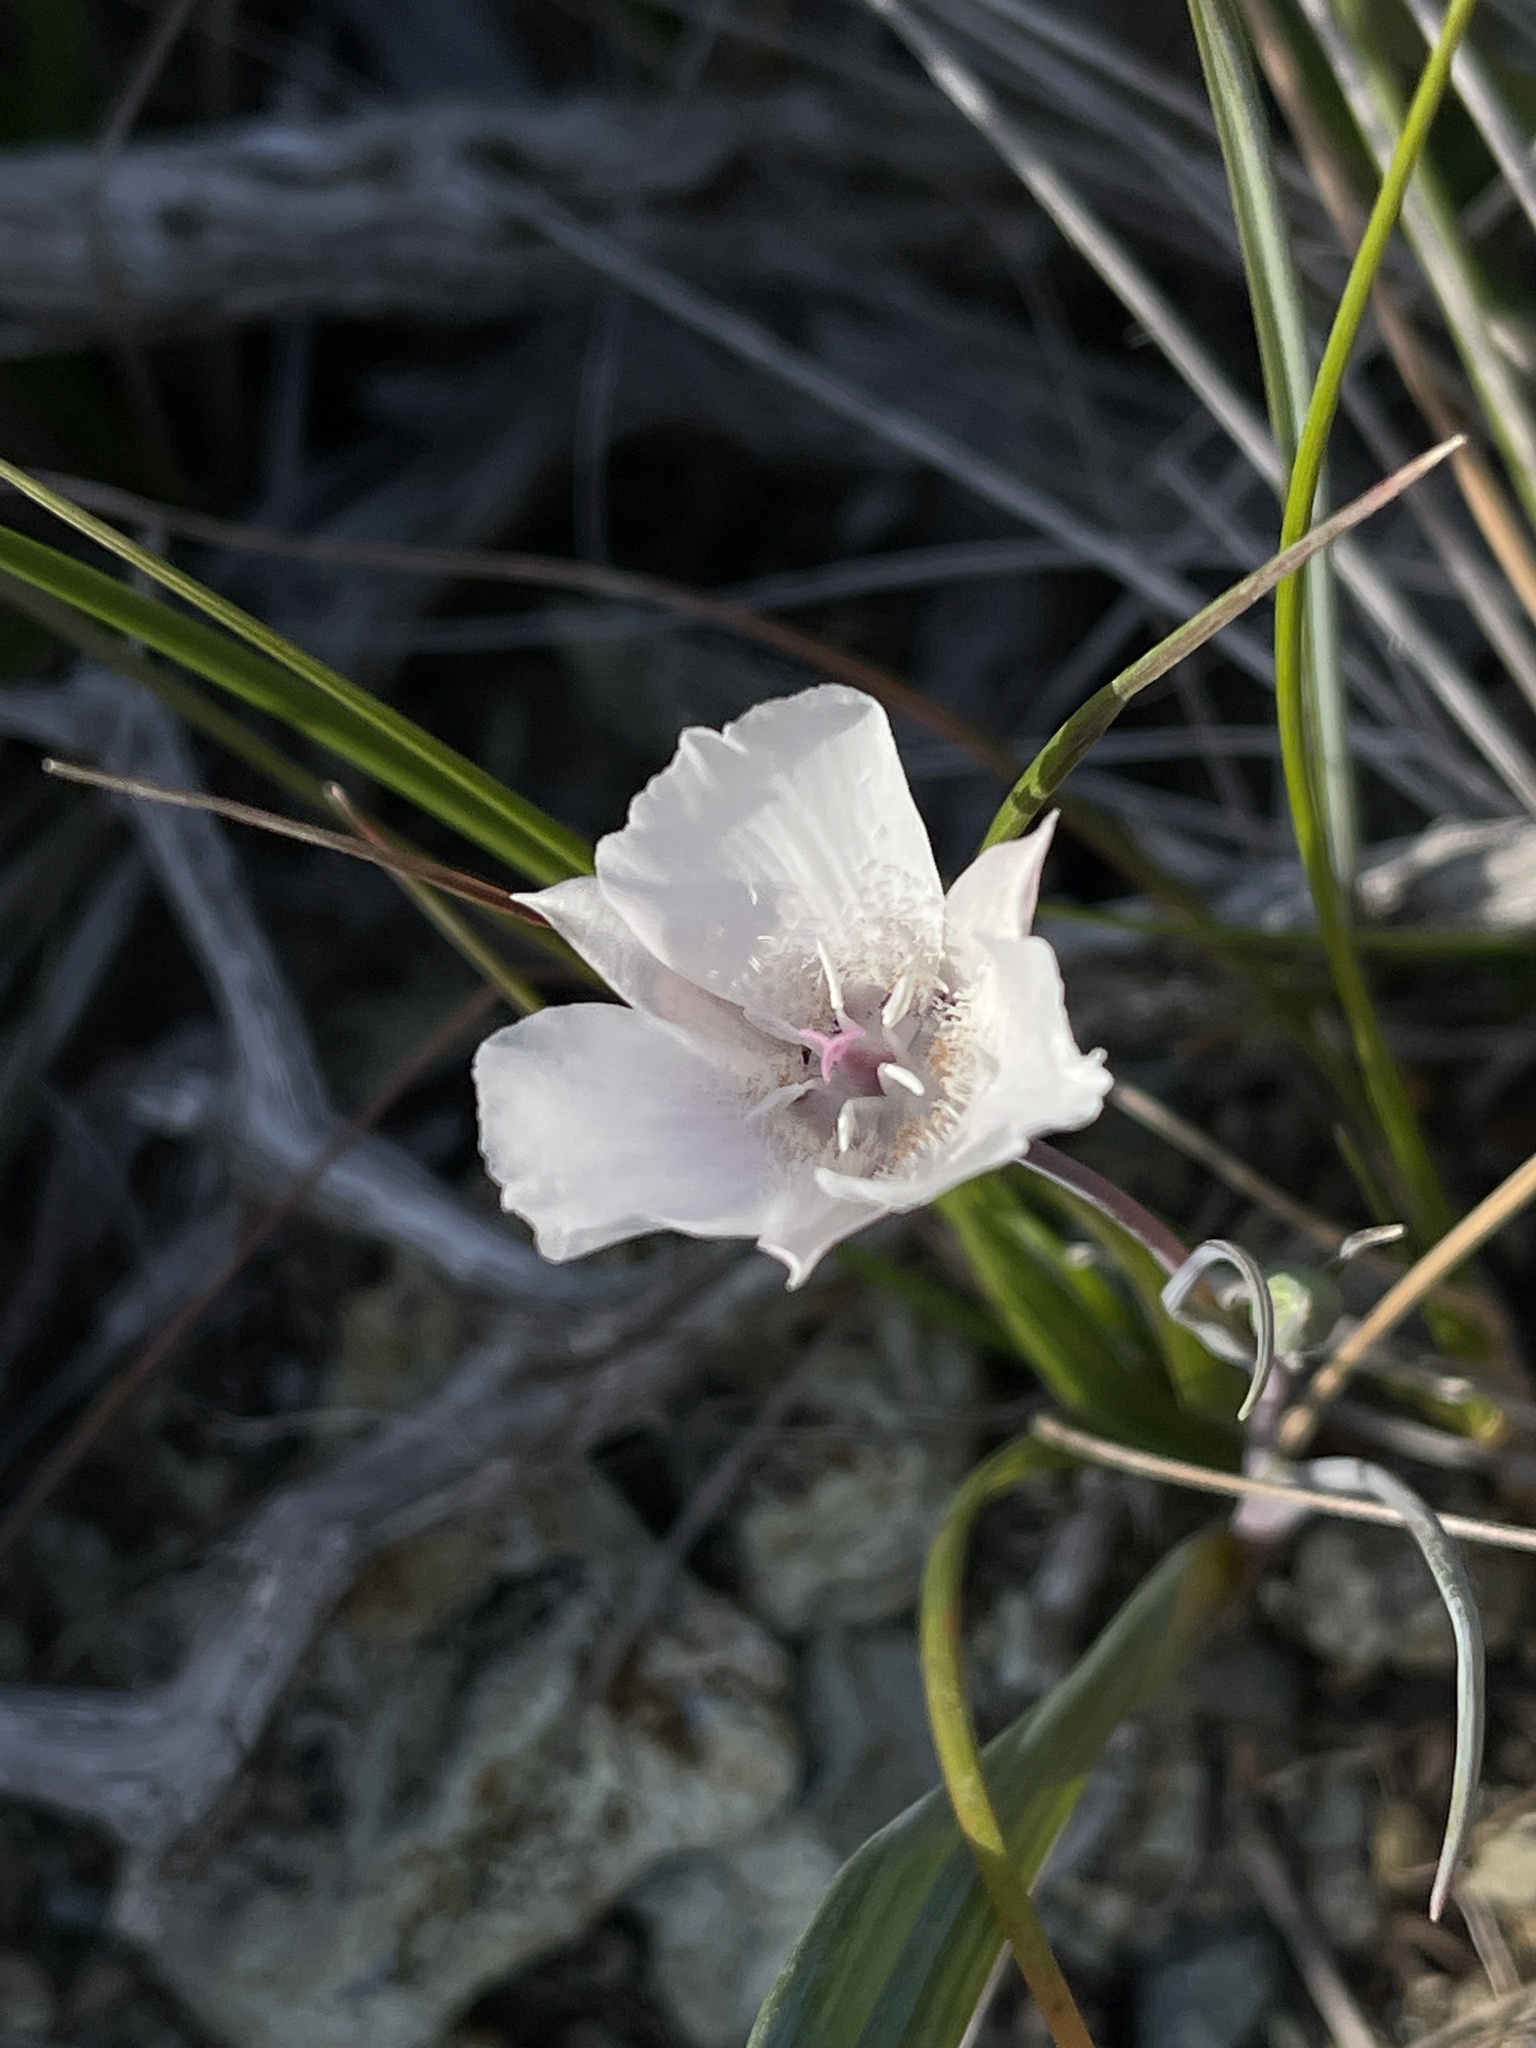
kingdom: Plantae
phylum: Tracheophyta
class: Liliopsida
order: Liliales
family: Liliaceae
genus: Calochortus
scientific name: Calochortus umbellatus
